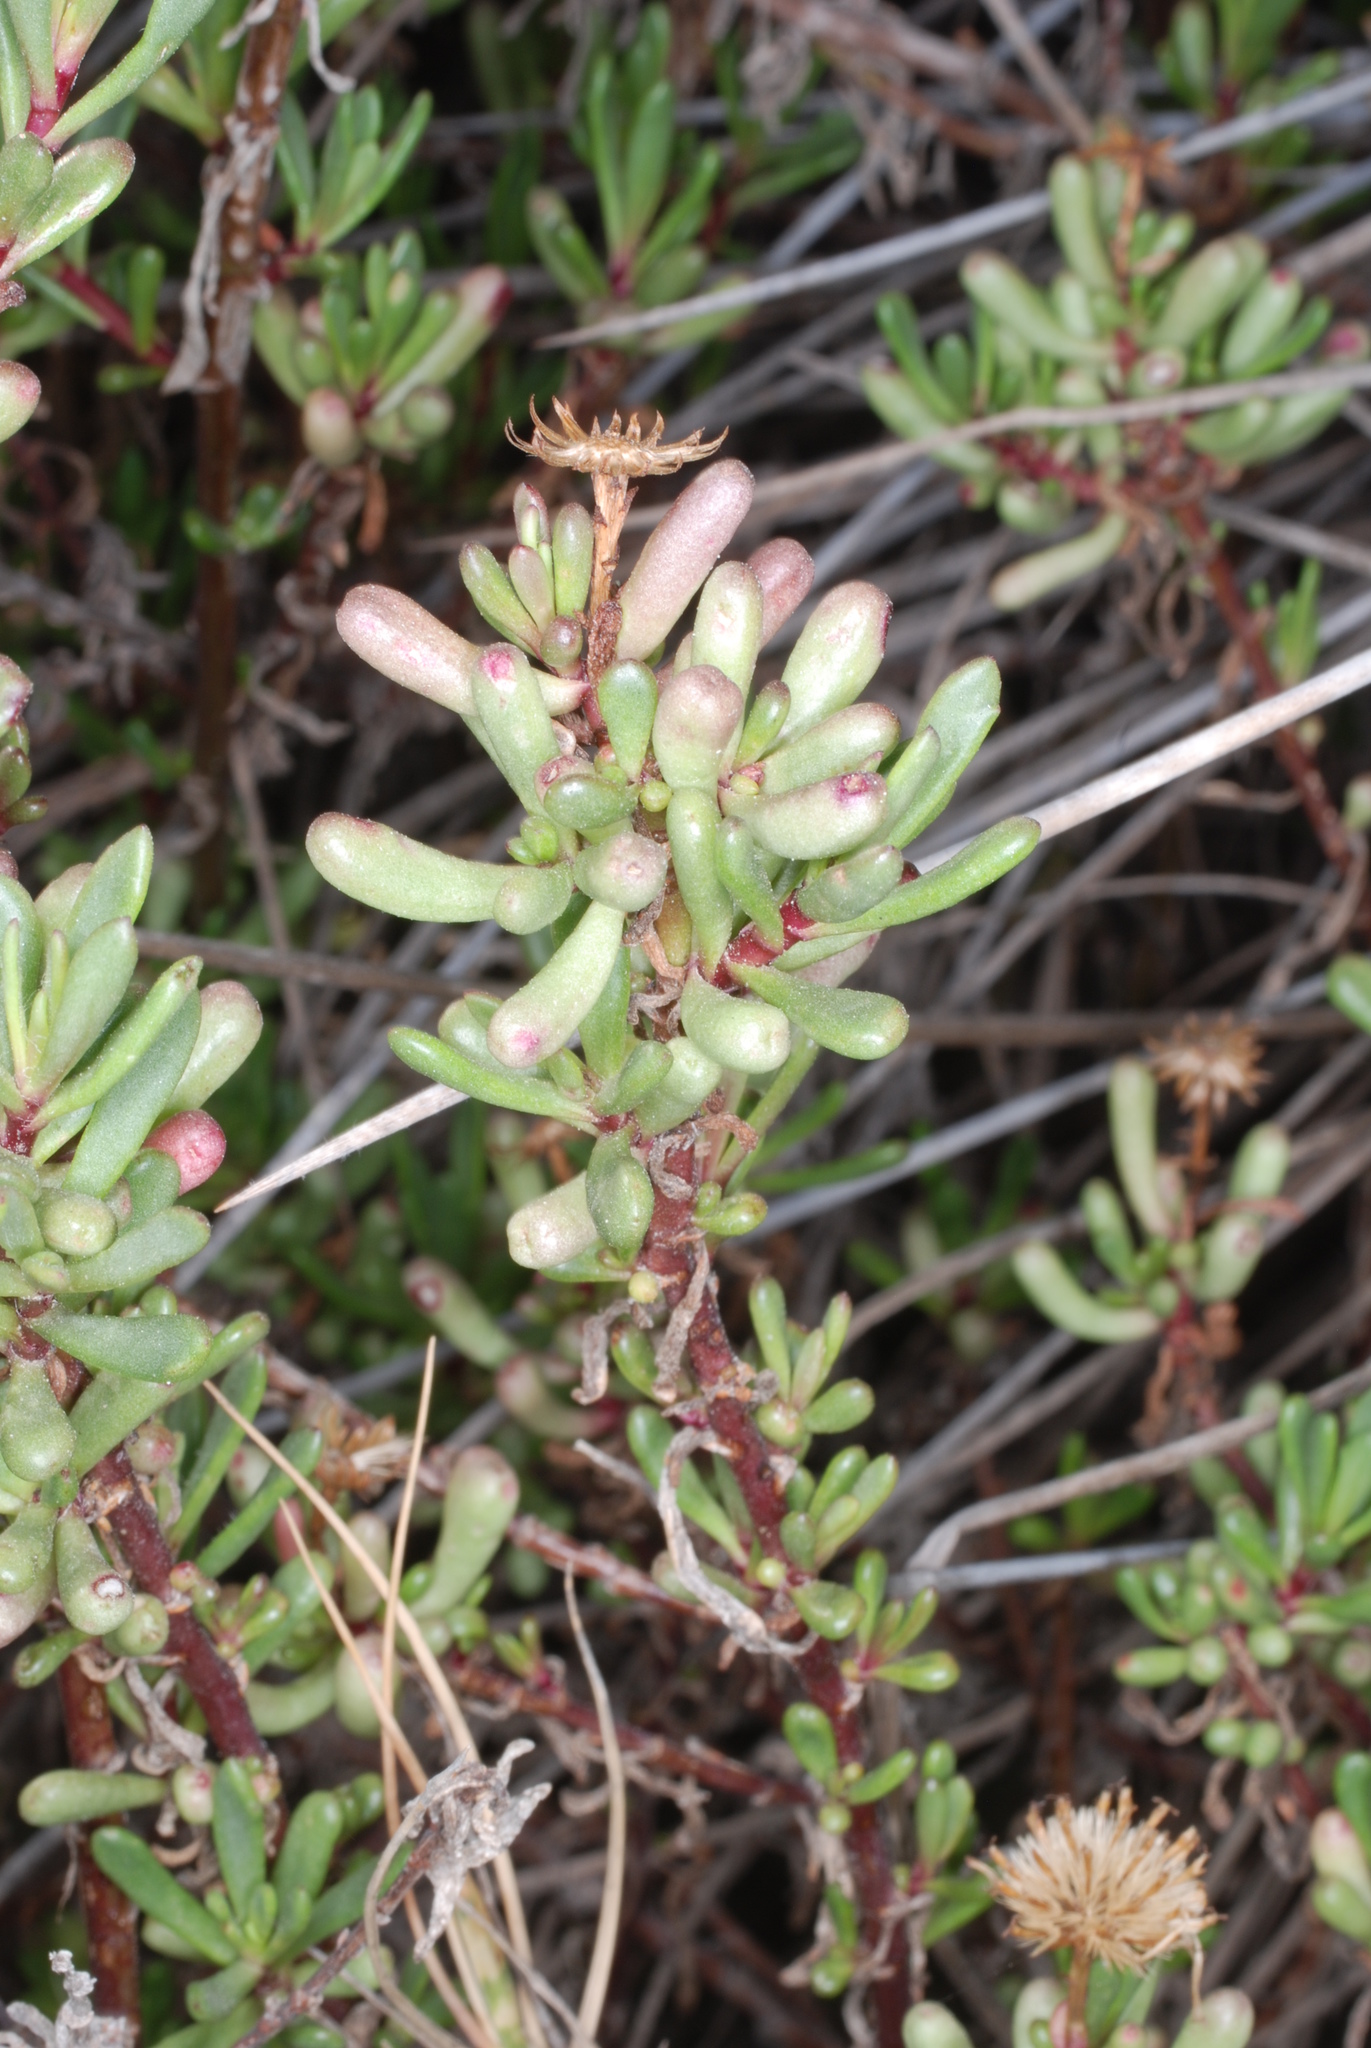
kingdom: Plantae
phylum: Tracheophyta
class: Magnoliopsida
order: Asterales
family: Asteraceae
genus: Limbarda
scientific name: Limbarda crithmoides
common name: Golden samphire
